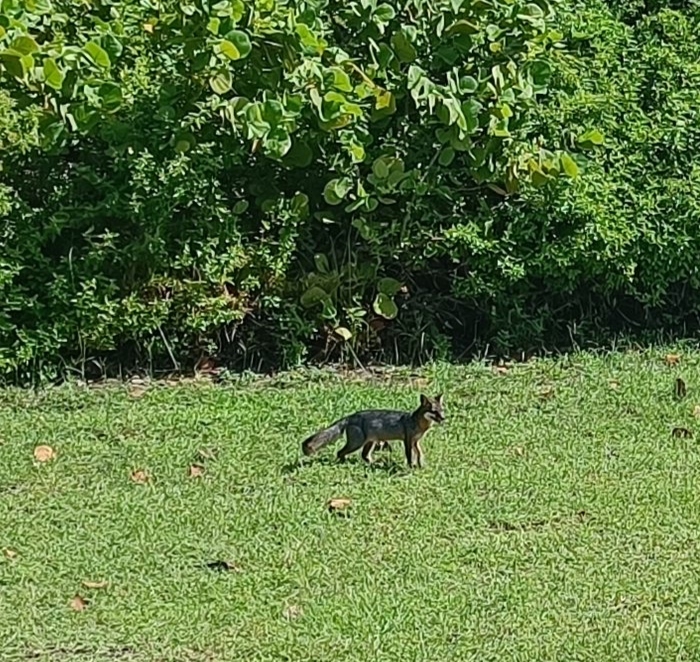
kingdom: Animalia
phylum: Chordata
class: Mammalia
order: Carnivora
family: Canidae
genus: Urocyon
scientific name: Urocyon cinereoargenteus
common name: Gray fox
